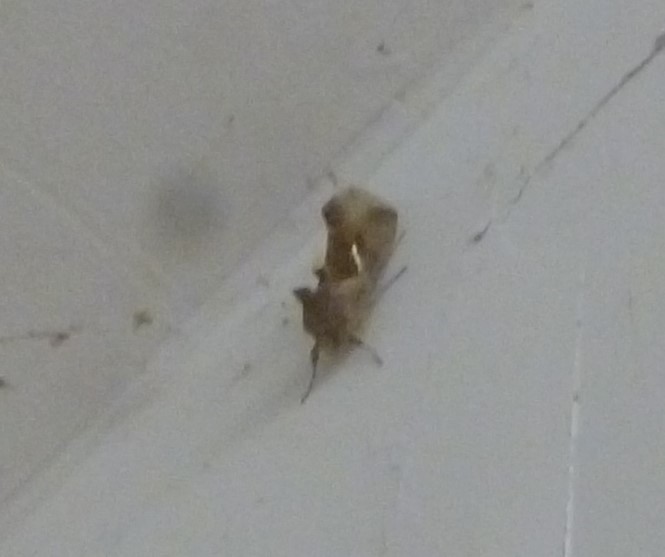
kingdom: Animalia
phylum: Arthropoda
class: Insecta
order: Lepidoptera
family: Noctuidae
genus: Anagrapha
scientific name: Anagrapha falcifera
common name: Celery looper
